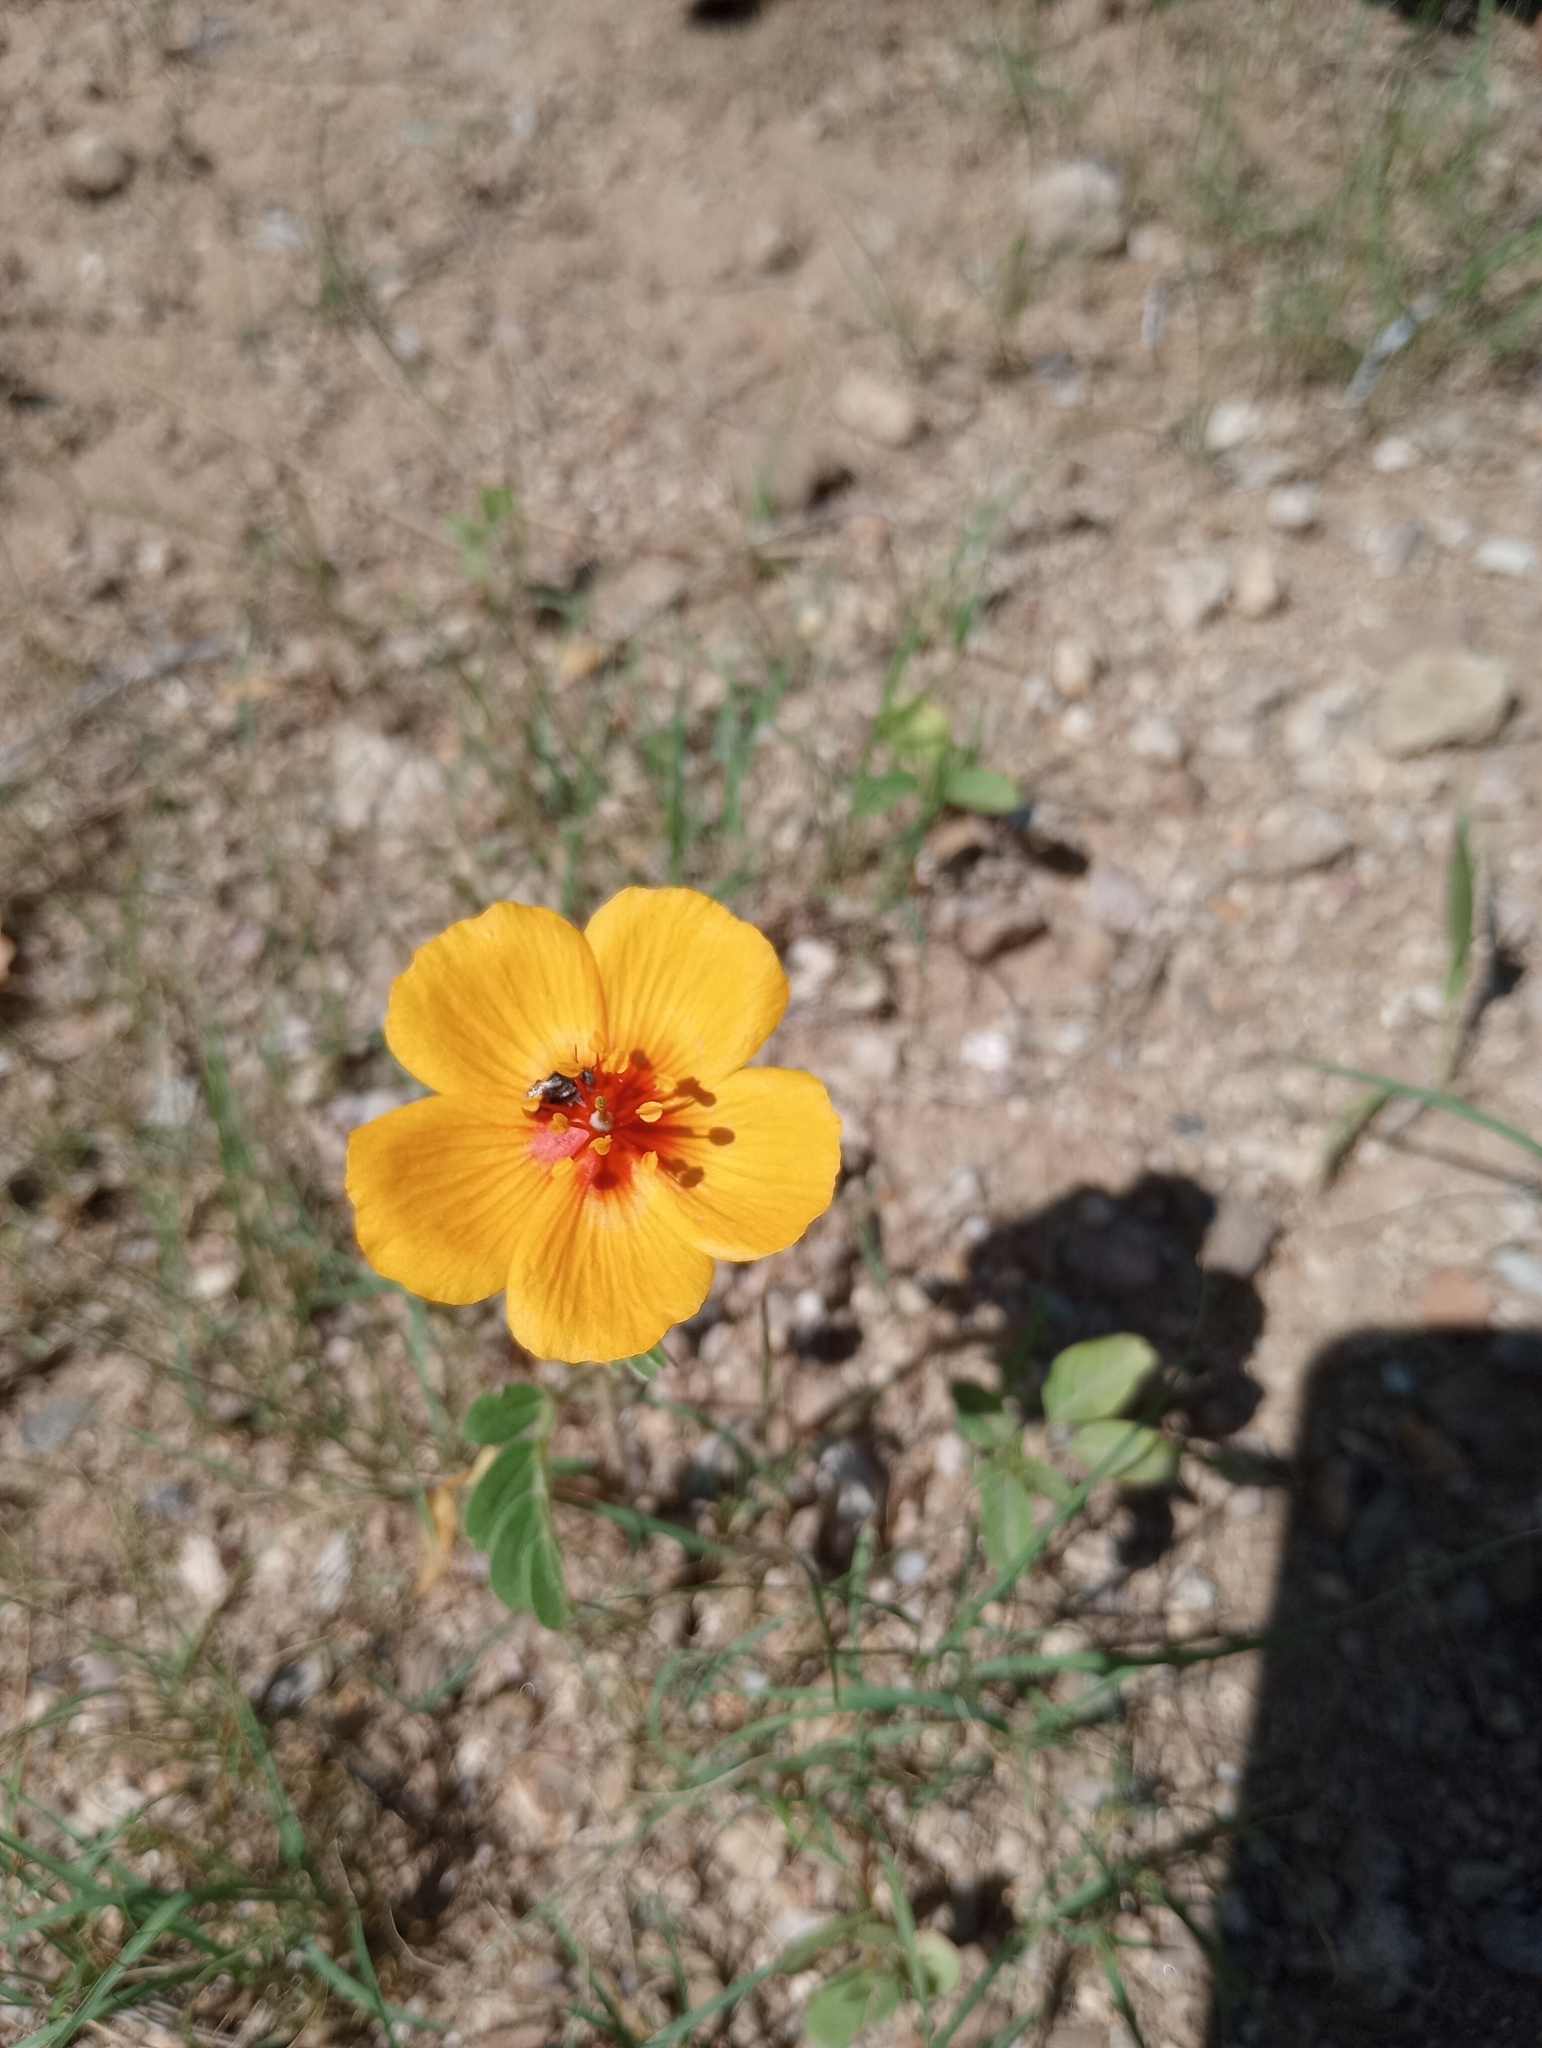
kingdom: Plantae
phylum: Tracheophyta
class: Magnoliopsida
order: Zygophyllales
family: Zygophyllaceae
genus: Kallstroemia
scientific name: Kallstroemia grandiflora
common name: Arizona-poppy
